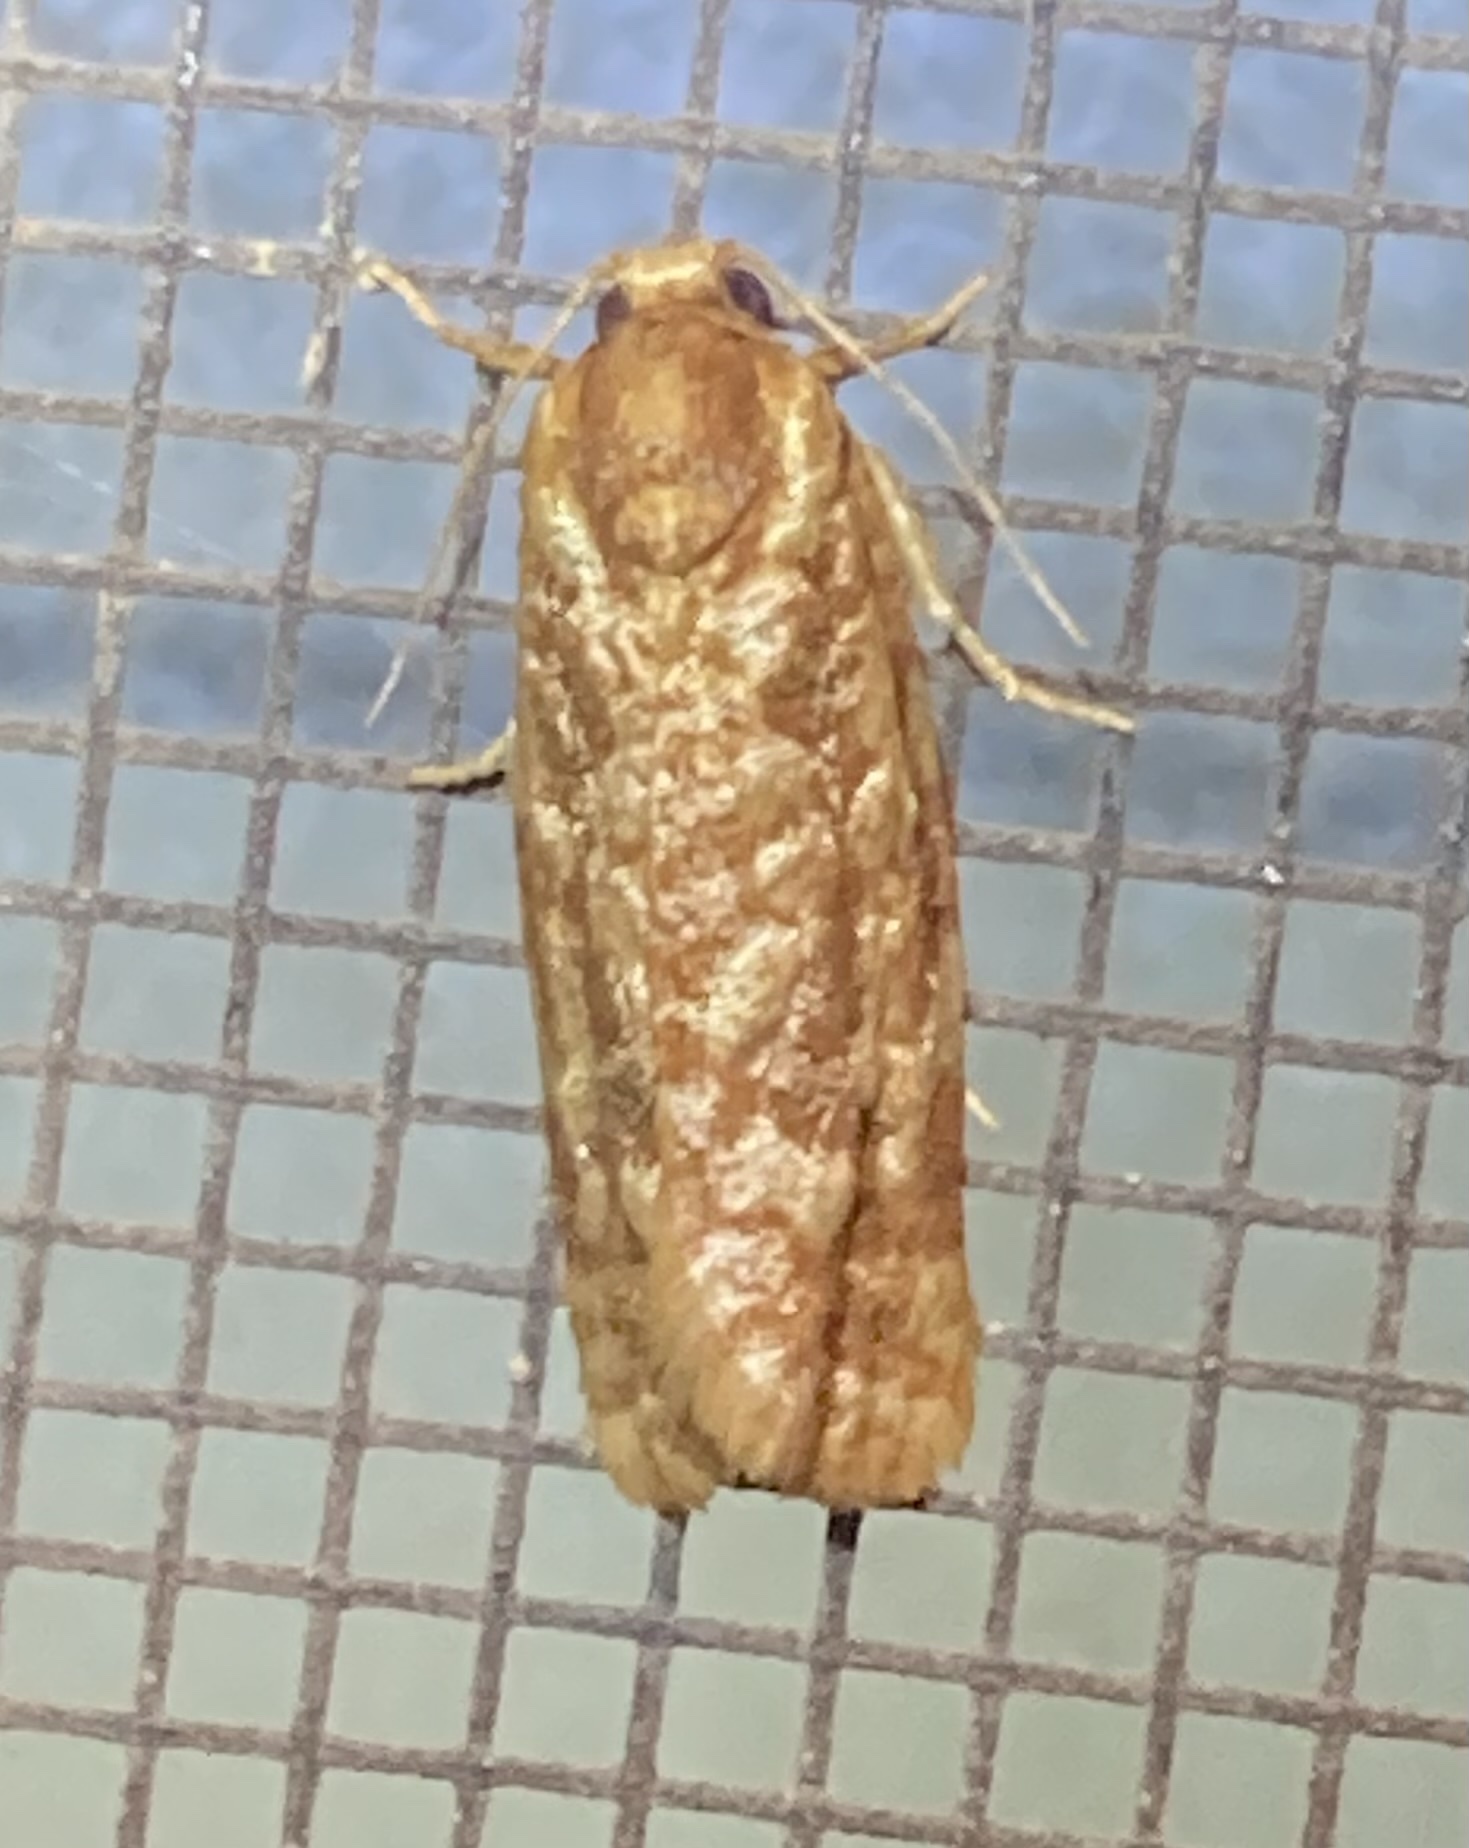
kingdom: Animalia
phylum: Arthropoda
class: Insecta
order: Lepidoptera
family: Tortricidae
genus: Choristoneura
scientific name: Choristoneura houstonana
